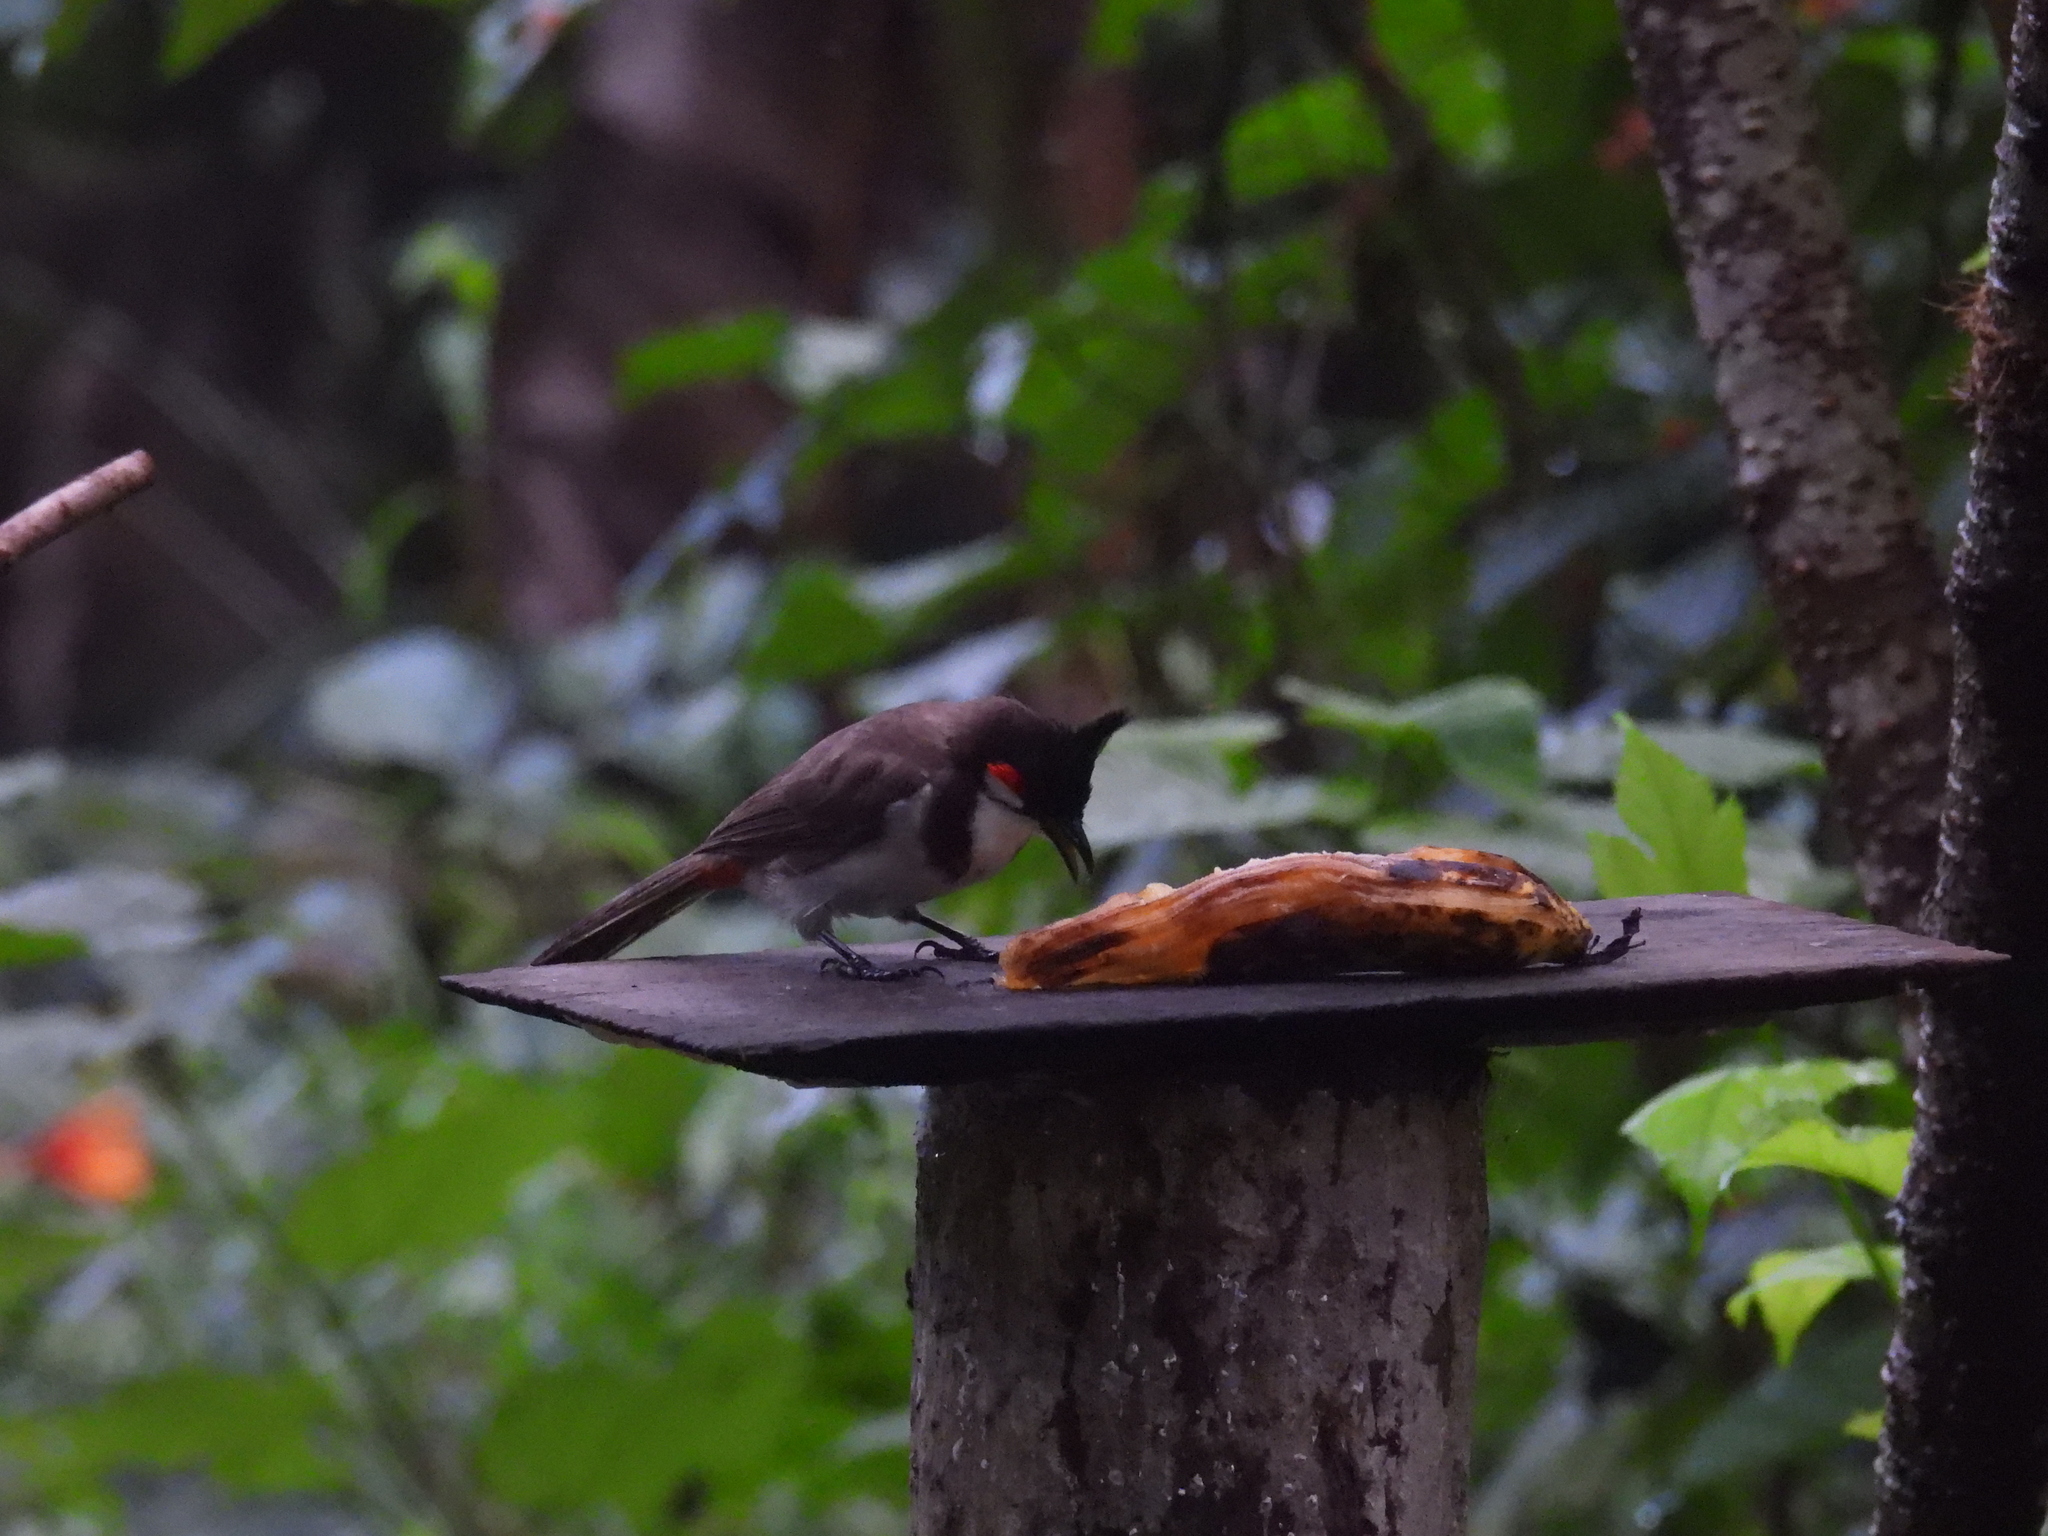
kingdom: Animalia
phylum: Chordata
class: Aves
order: Passeriformes
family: Pycnonotidae
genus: Pycnonotus
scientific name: Pycnonotus jocosus
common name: Red-whiskered bulbul
